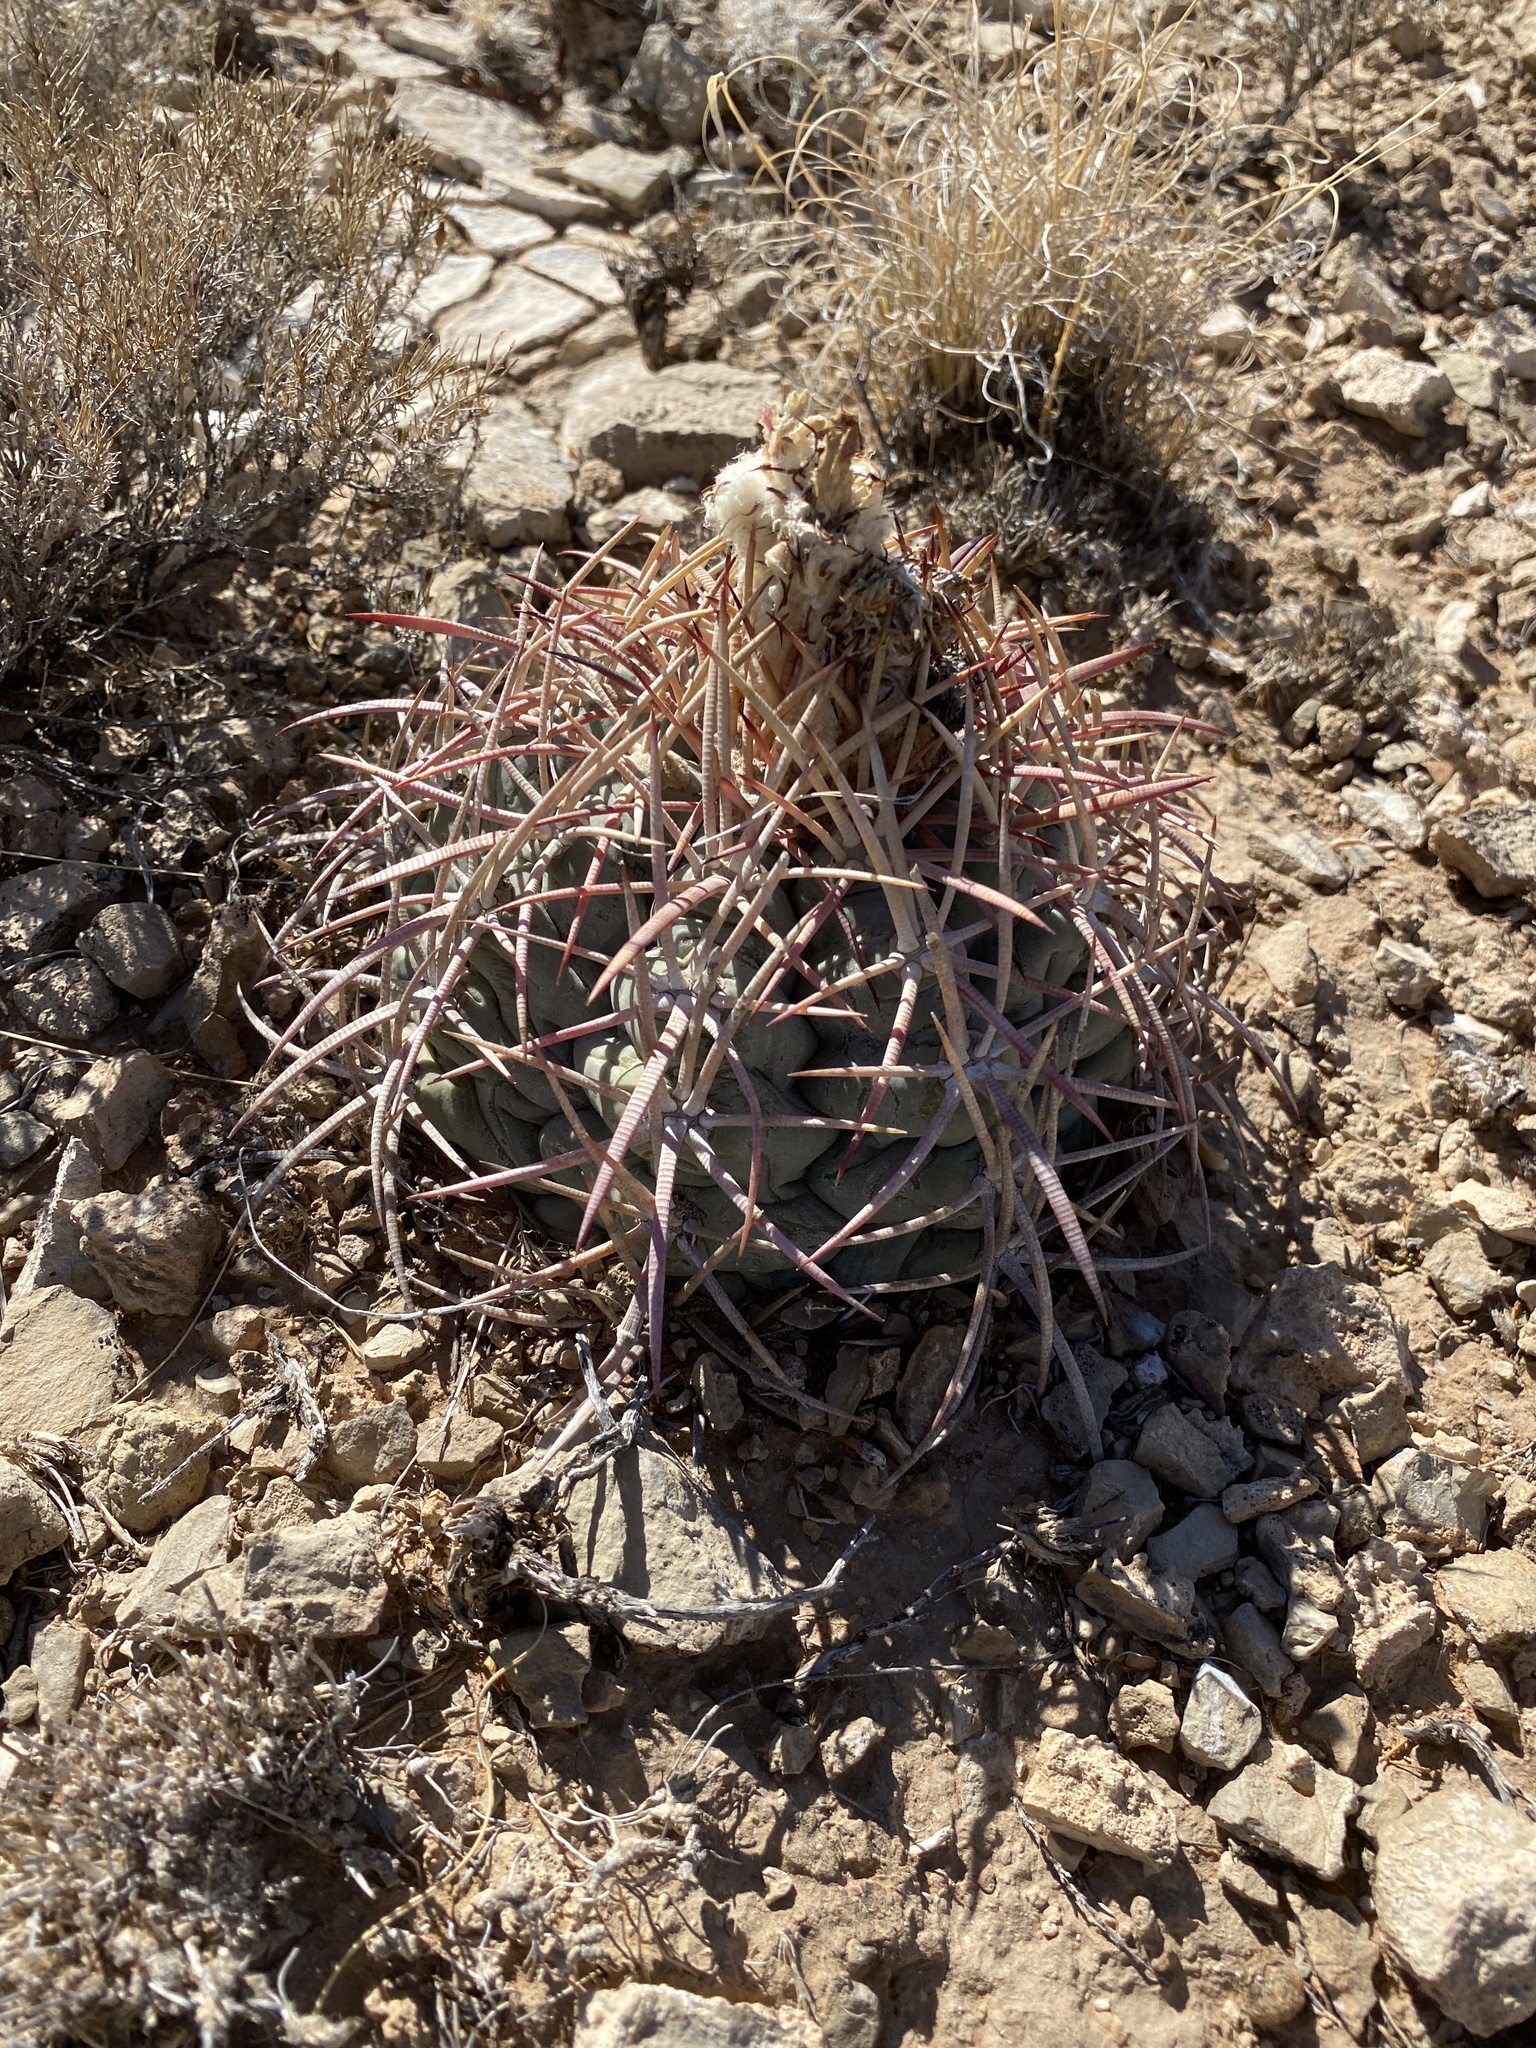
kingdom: Plantae
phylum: Tracheophyta
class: Magnoliopsida
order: Caryophyllales
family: Cactaceae
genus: Echinocactus
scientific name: Echinocactus horizonthalonius
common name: Devilshead
